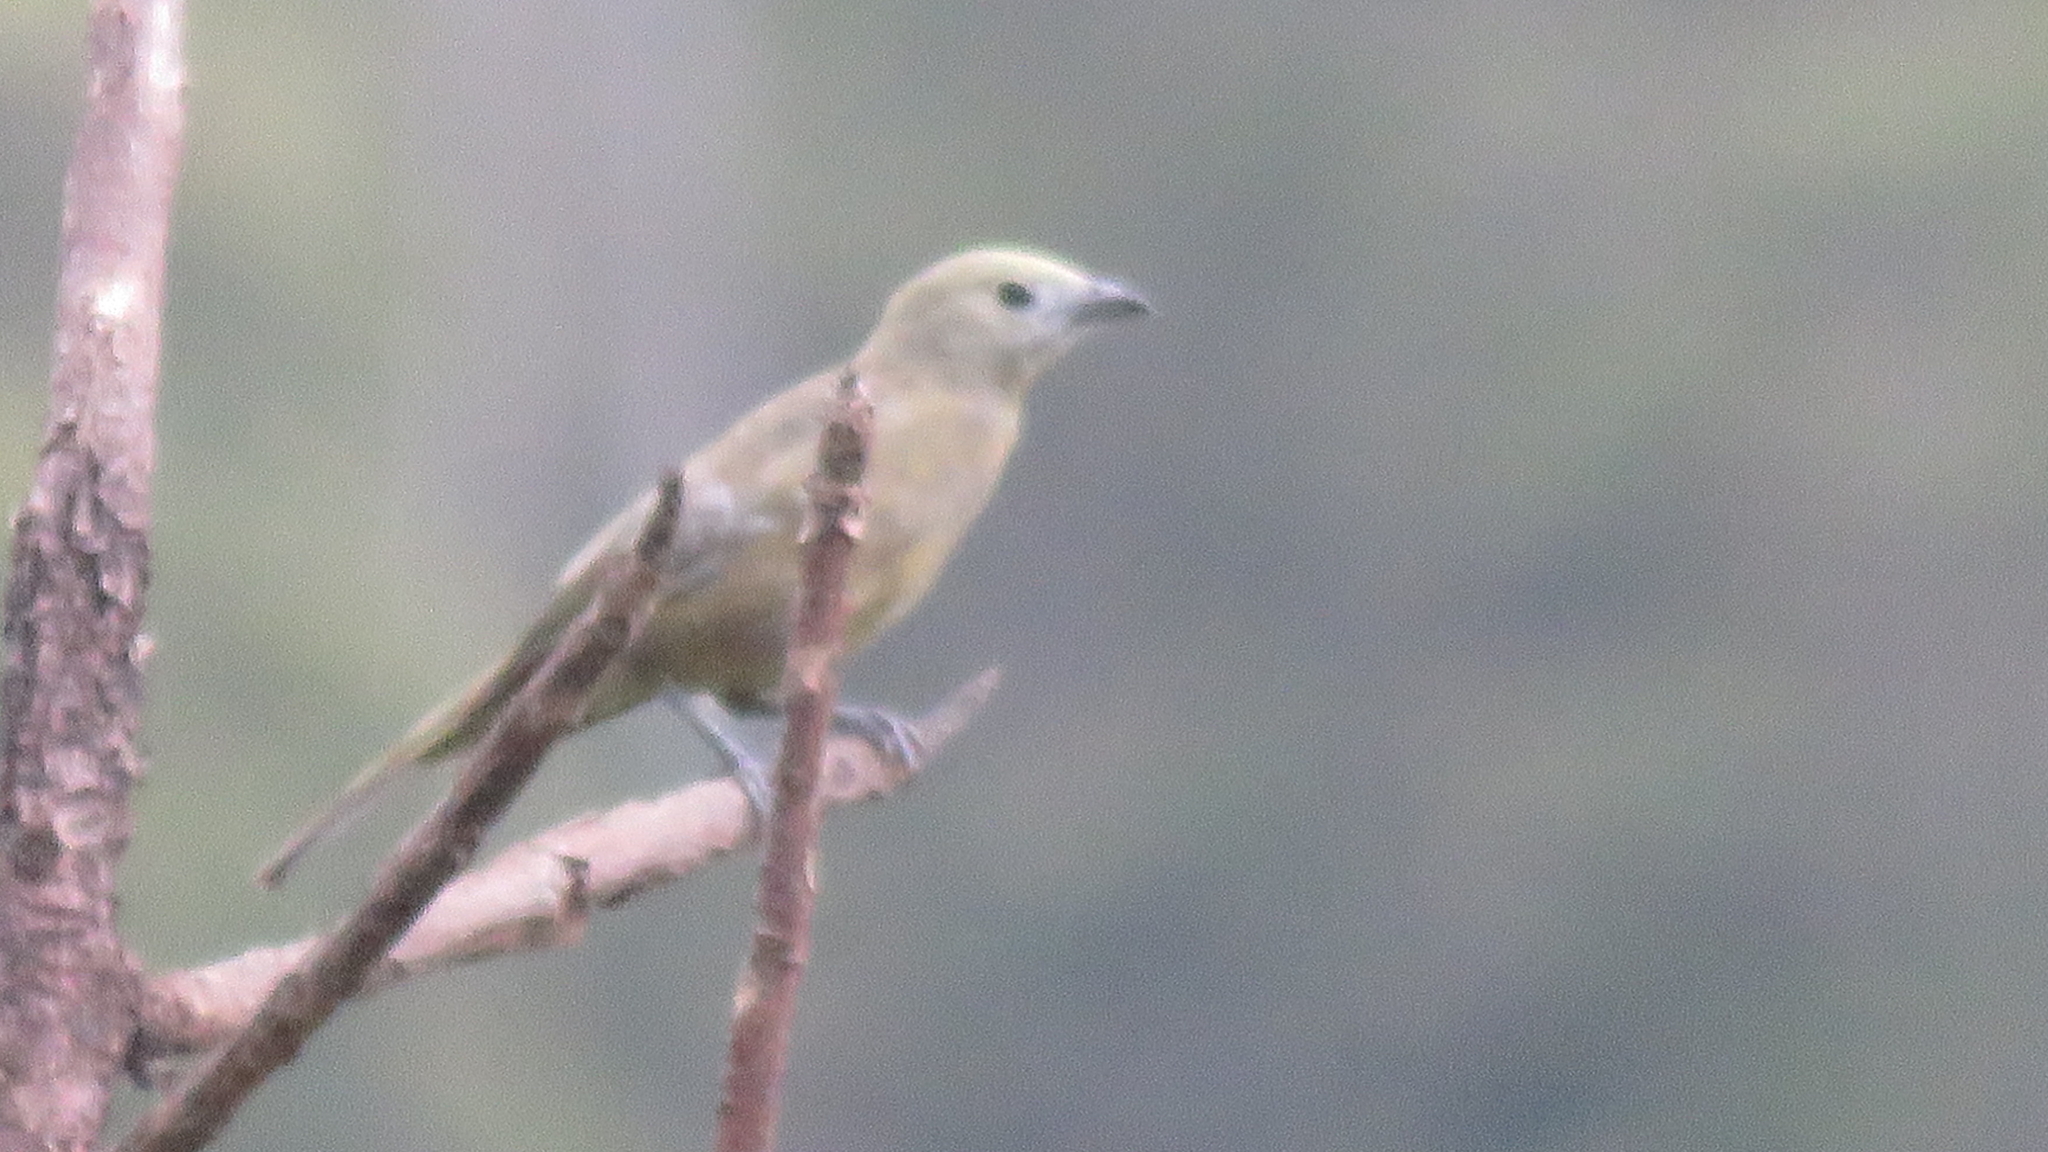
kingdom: Animalia
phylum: Chordata
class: Aves
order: Passeriformes
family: Thraupidae
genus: Thraupis
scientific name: Thraupis palmarum
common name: Palm tanager
